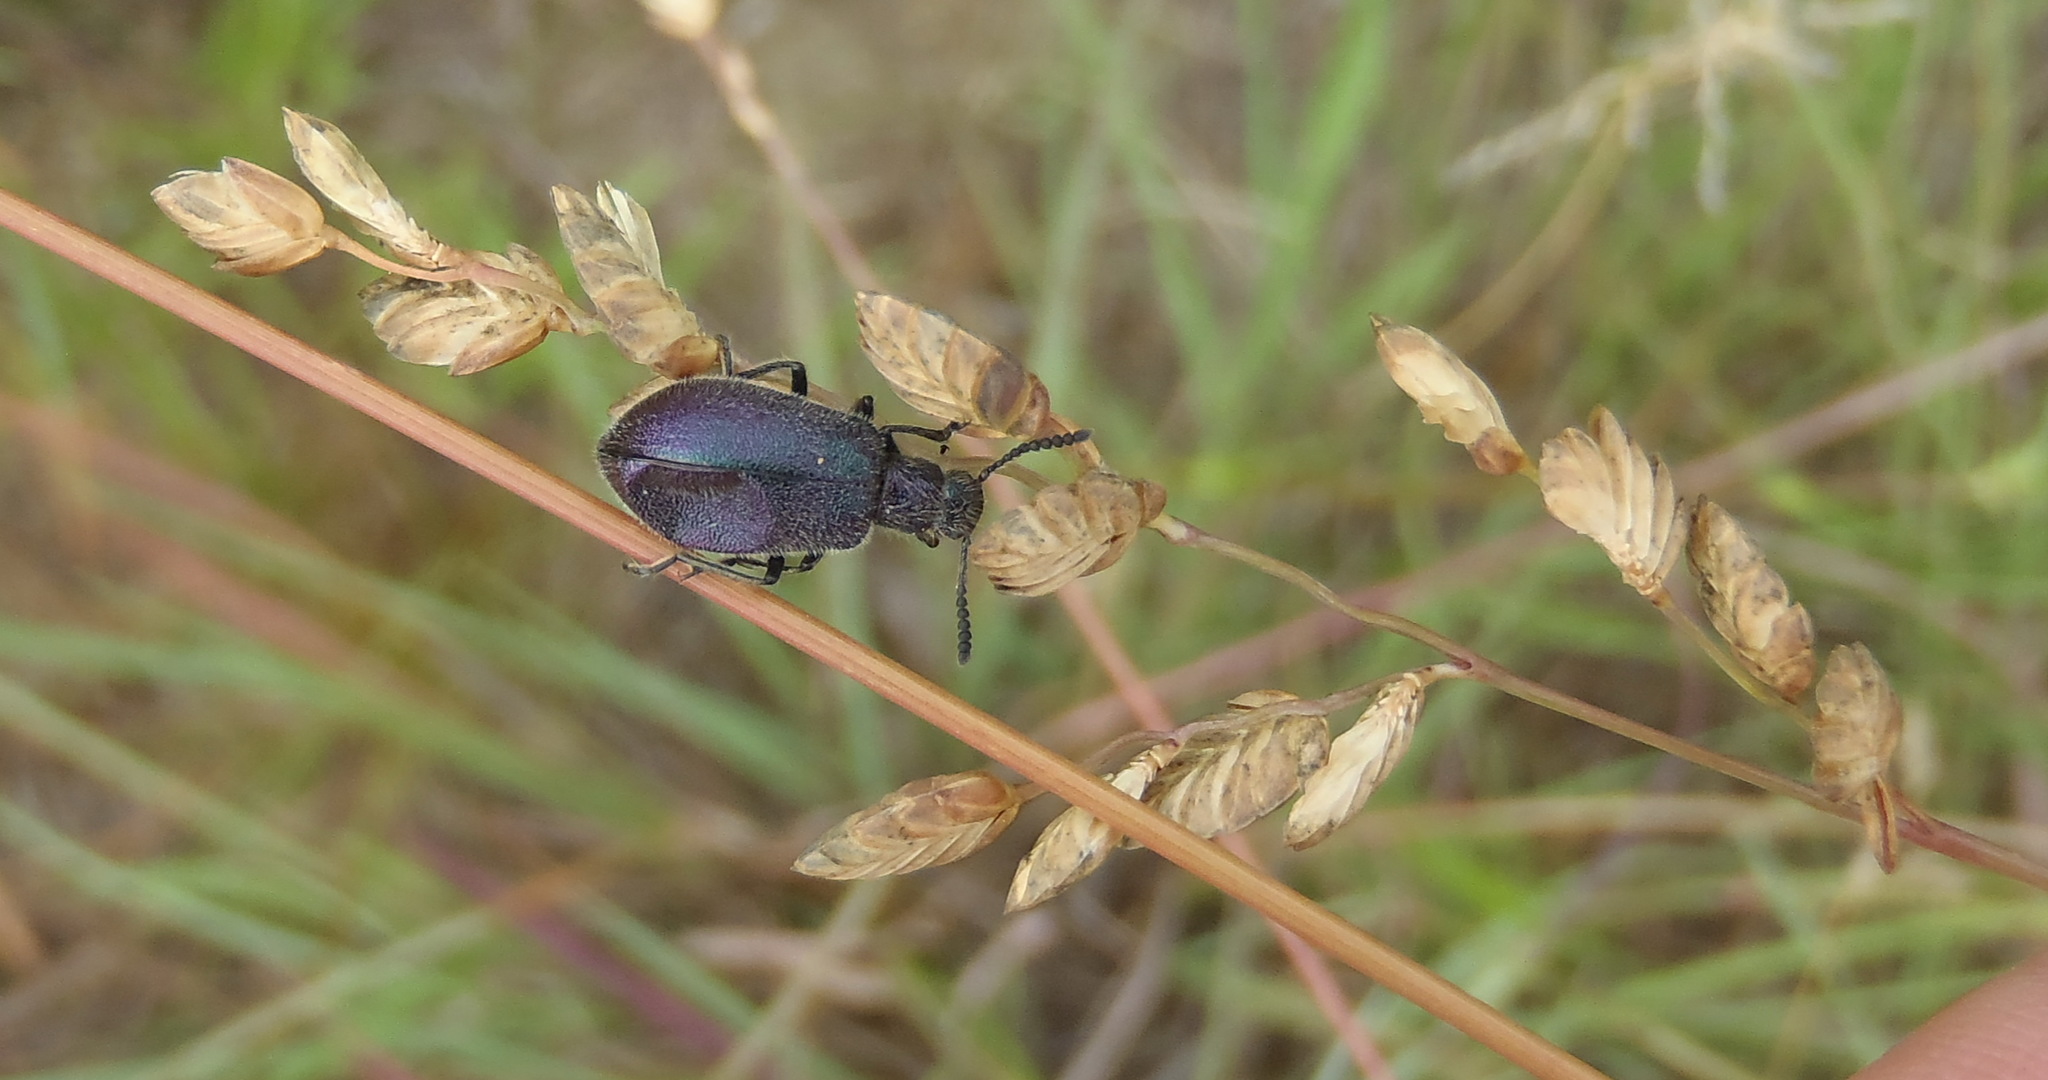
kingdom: Plantae
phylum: Tracheophyta
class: Liliopsida
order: Poales
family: Poaceae
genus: Eragrostis
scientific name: Eragrostis capensis
